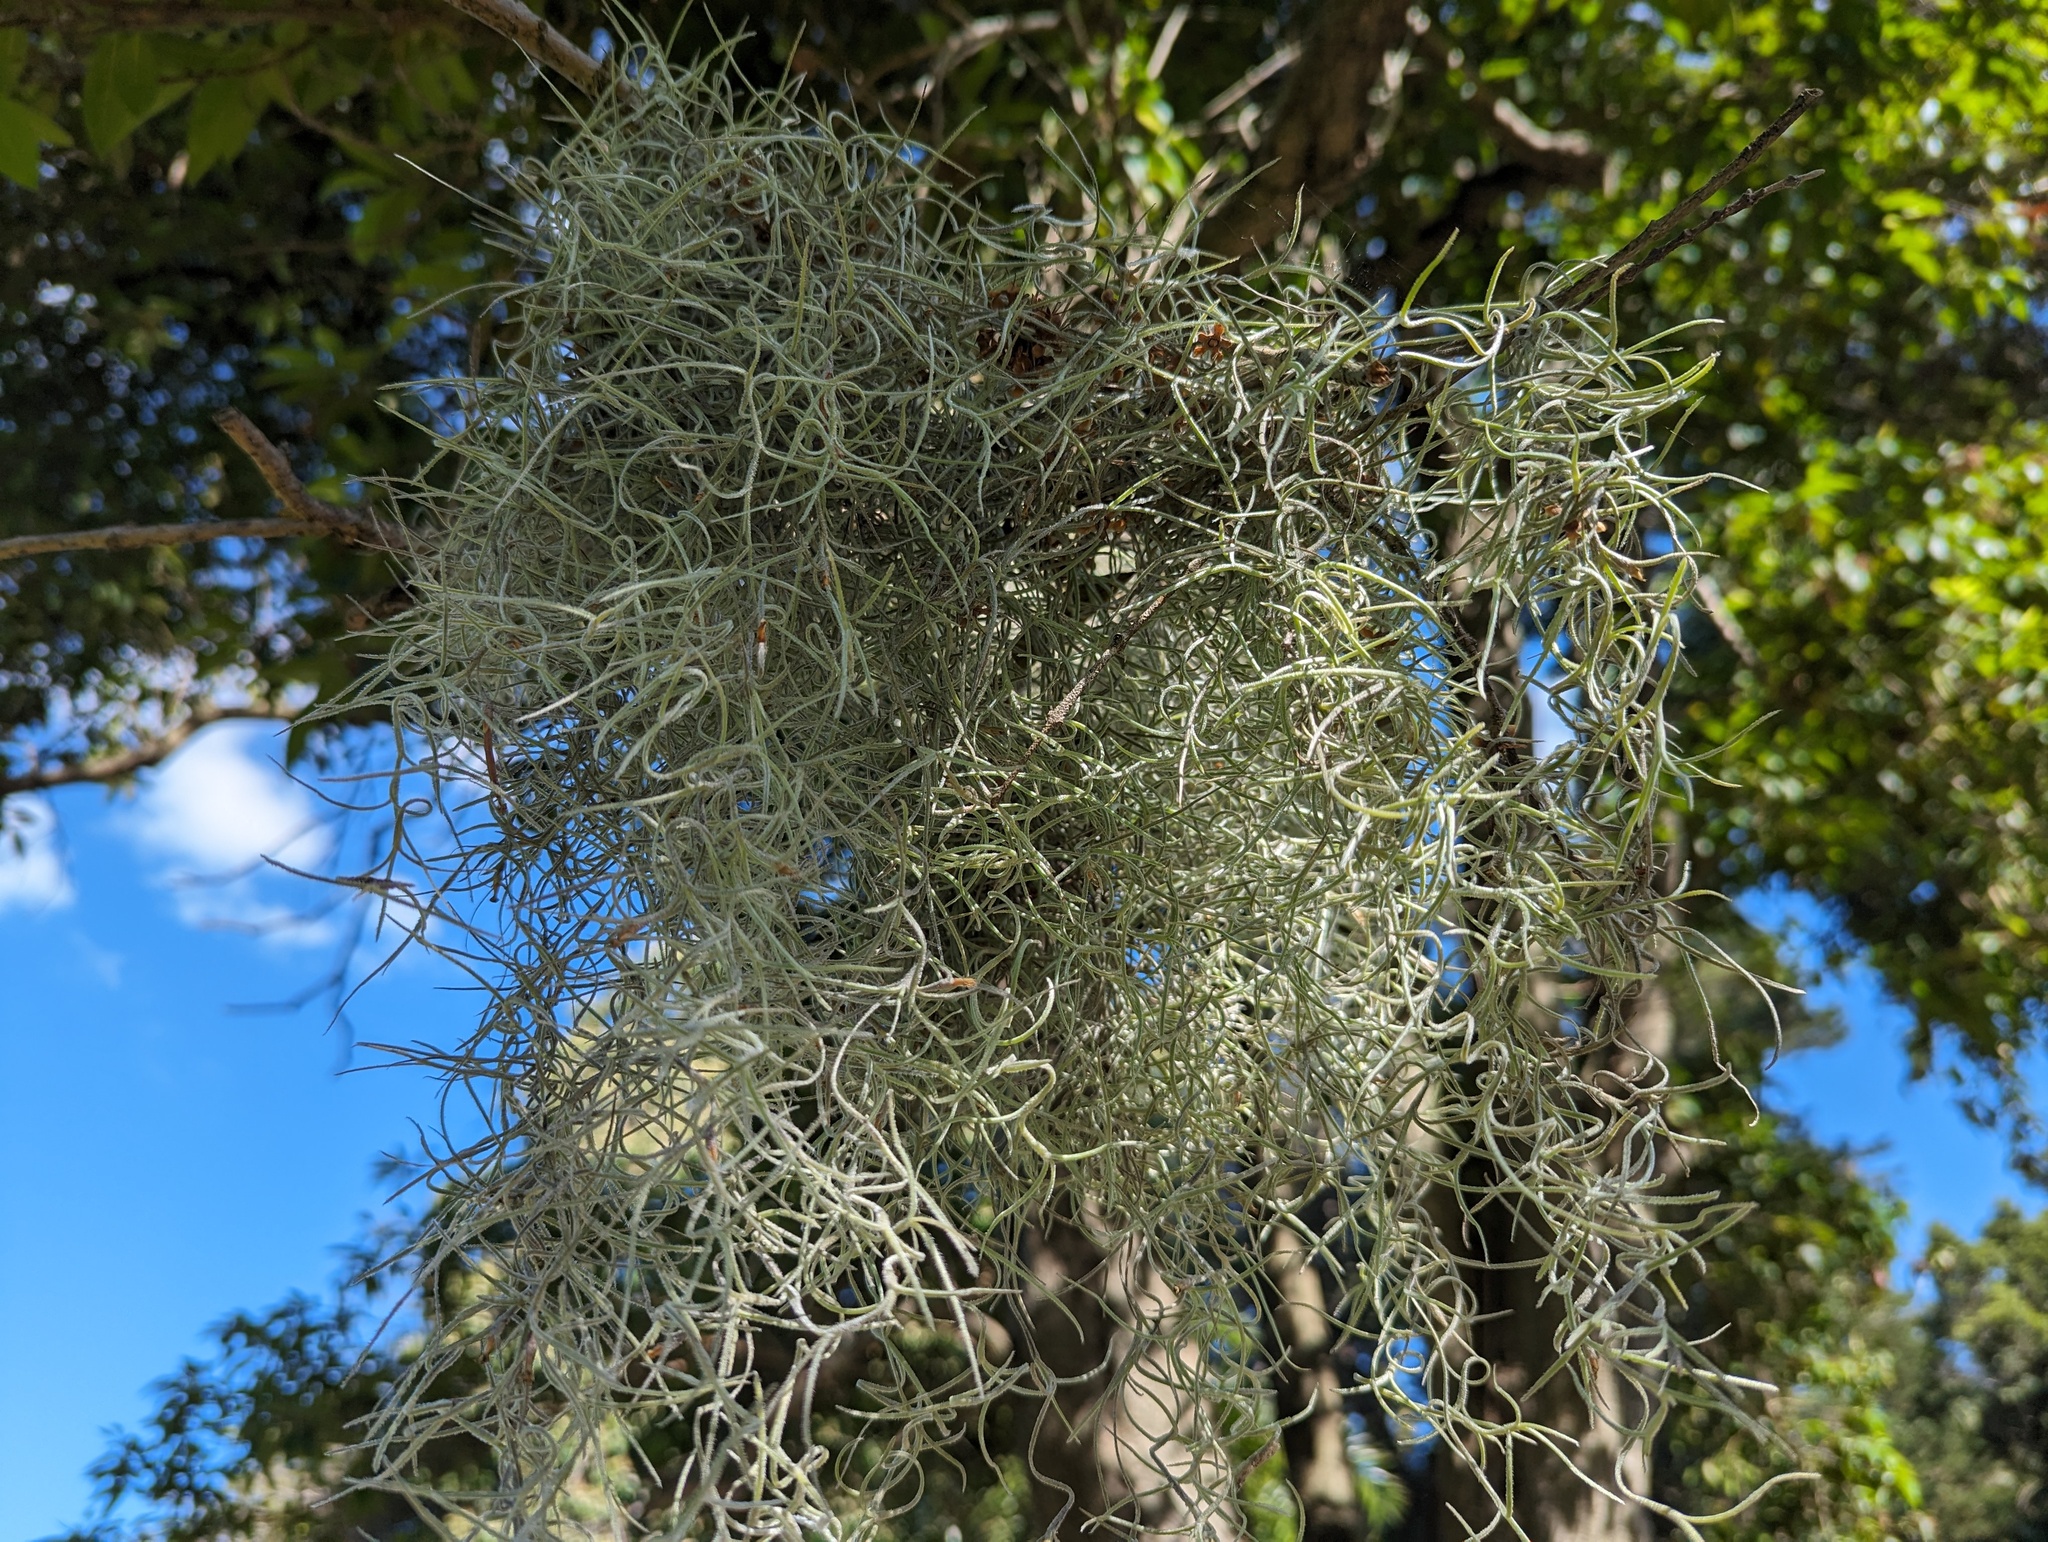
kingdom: Plantae
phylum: Tracheophyta
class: Liliopsida
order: Poales
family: Bromeliaceae
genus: Tillandsia
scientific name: Tillandsia usneoides
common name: Spanish moss
